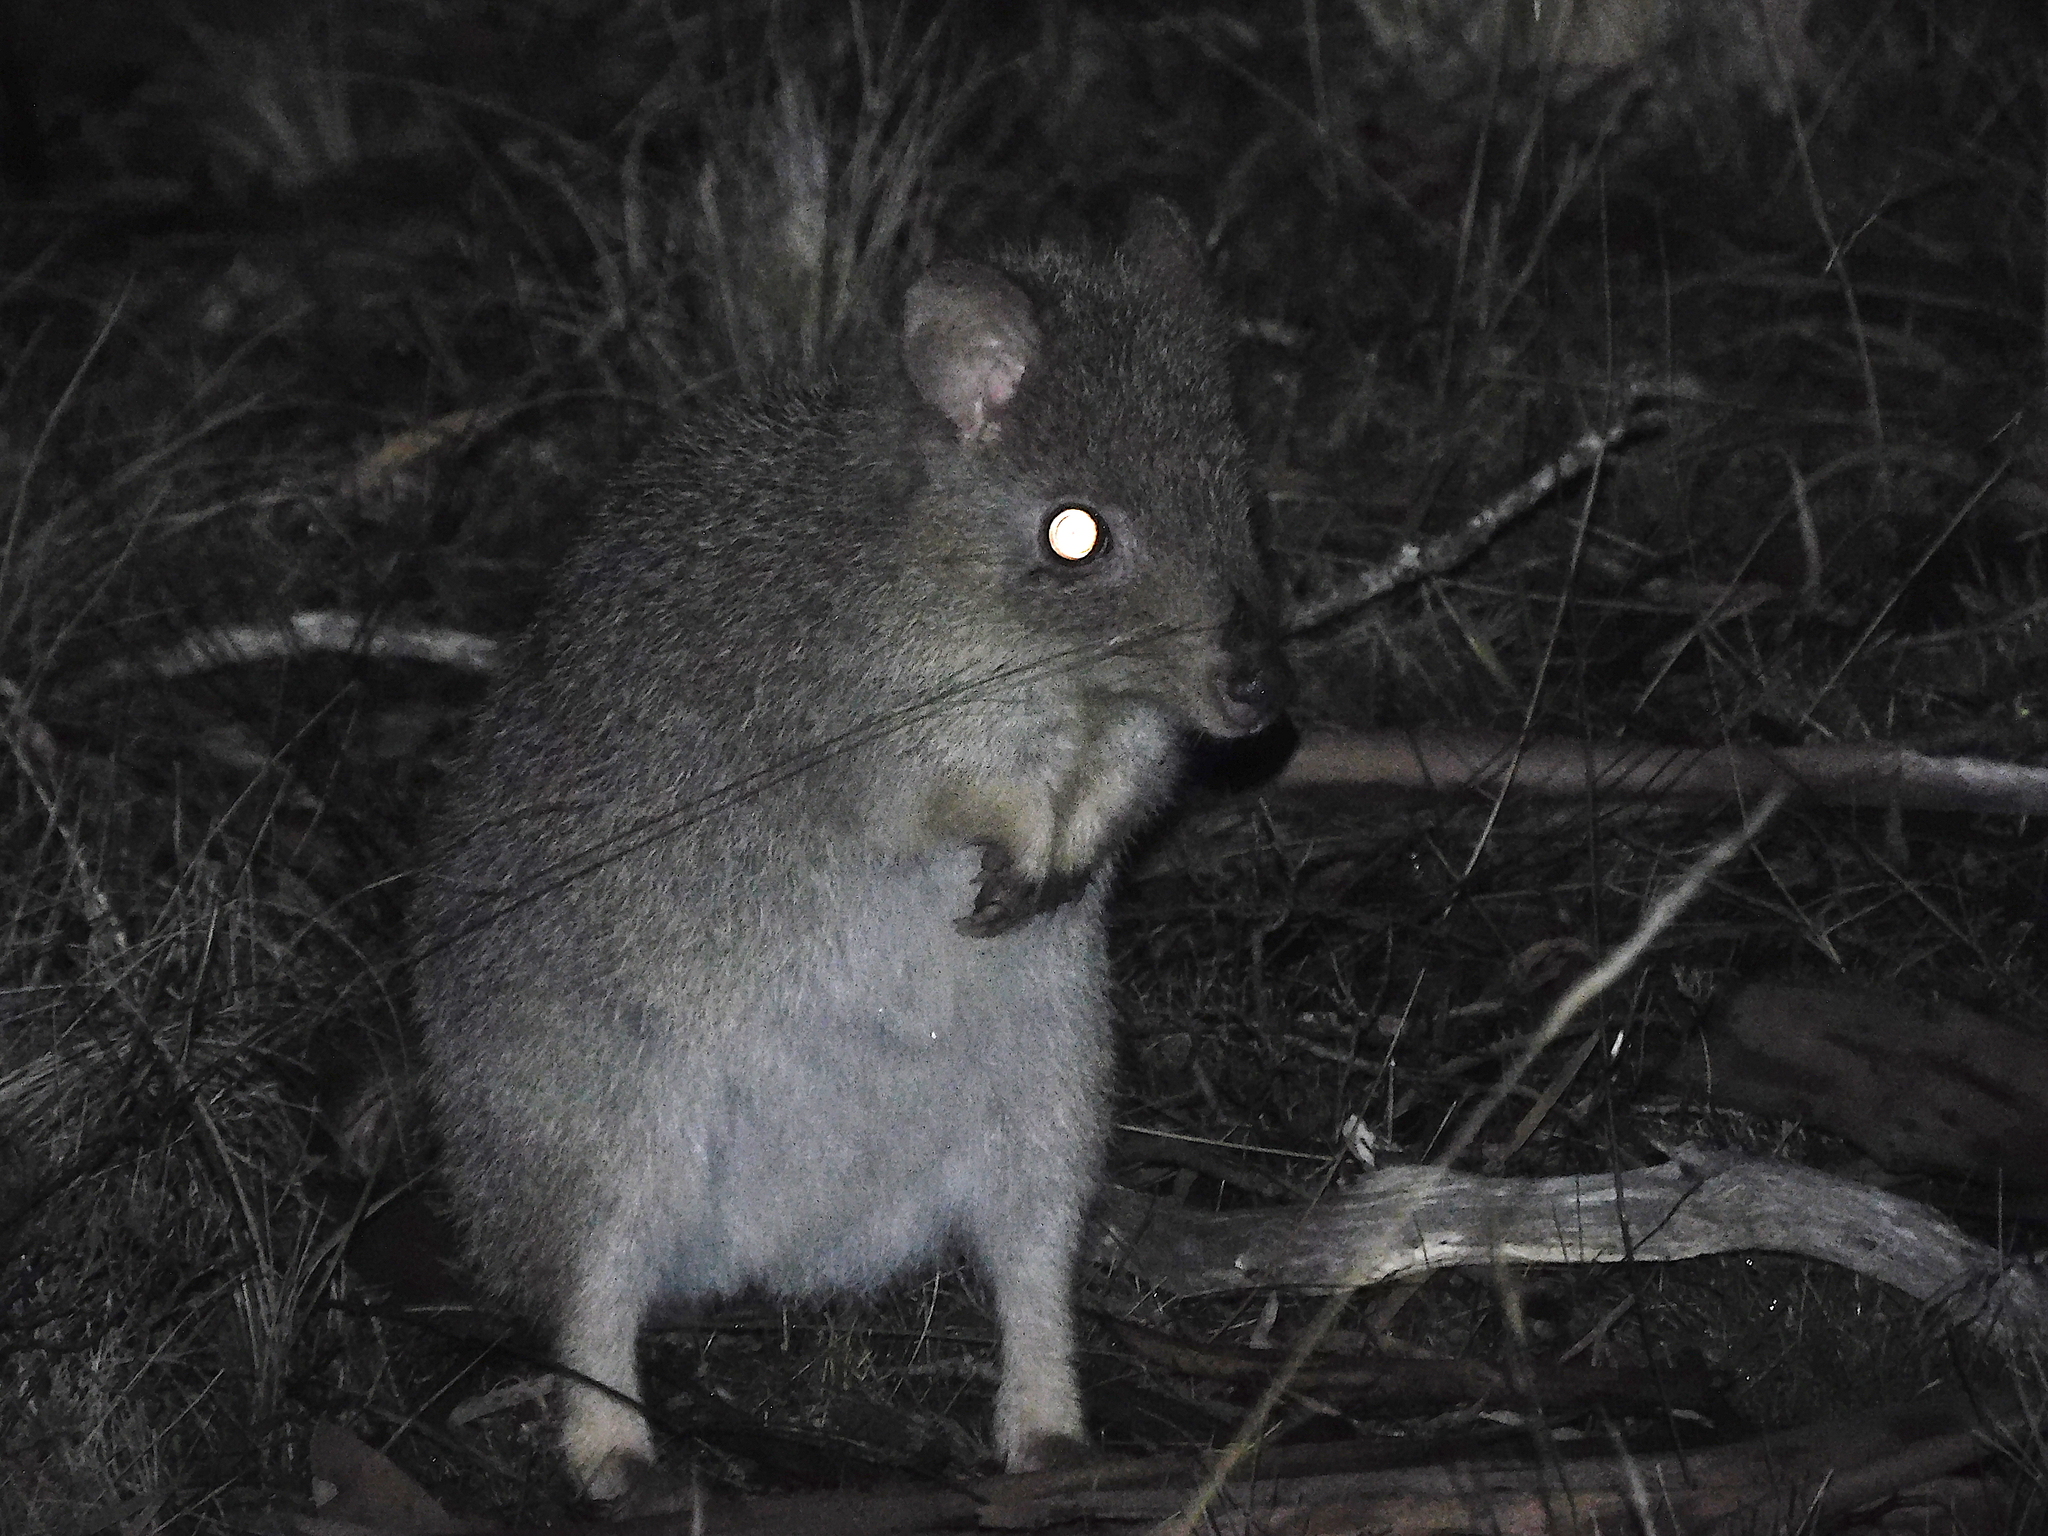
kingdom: Animalia
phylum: Chordata
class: Mammalia
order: Diprotodontia
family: Potoroidae
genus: Bettongia
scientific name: Bettongia gaimardi
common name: Eastern bettong
